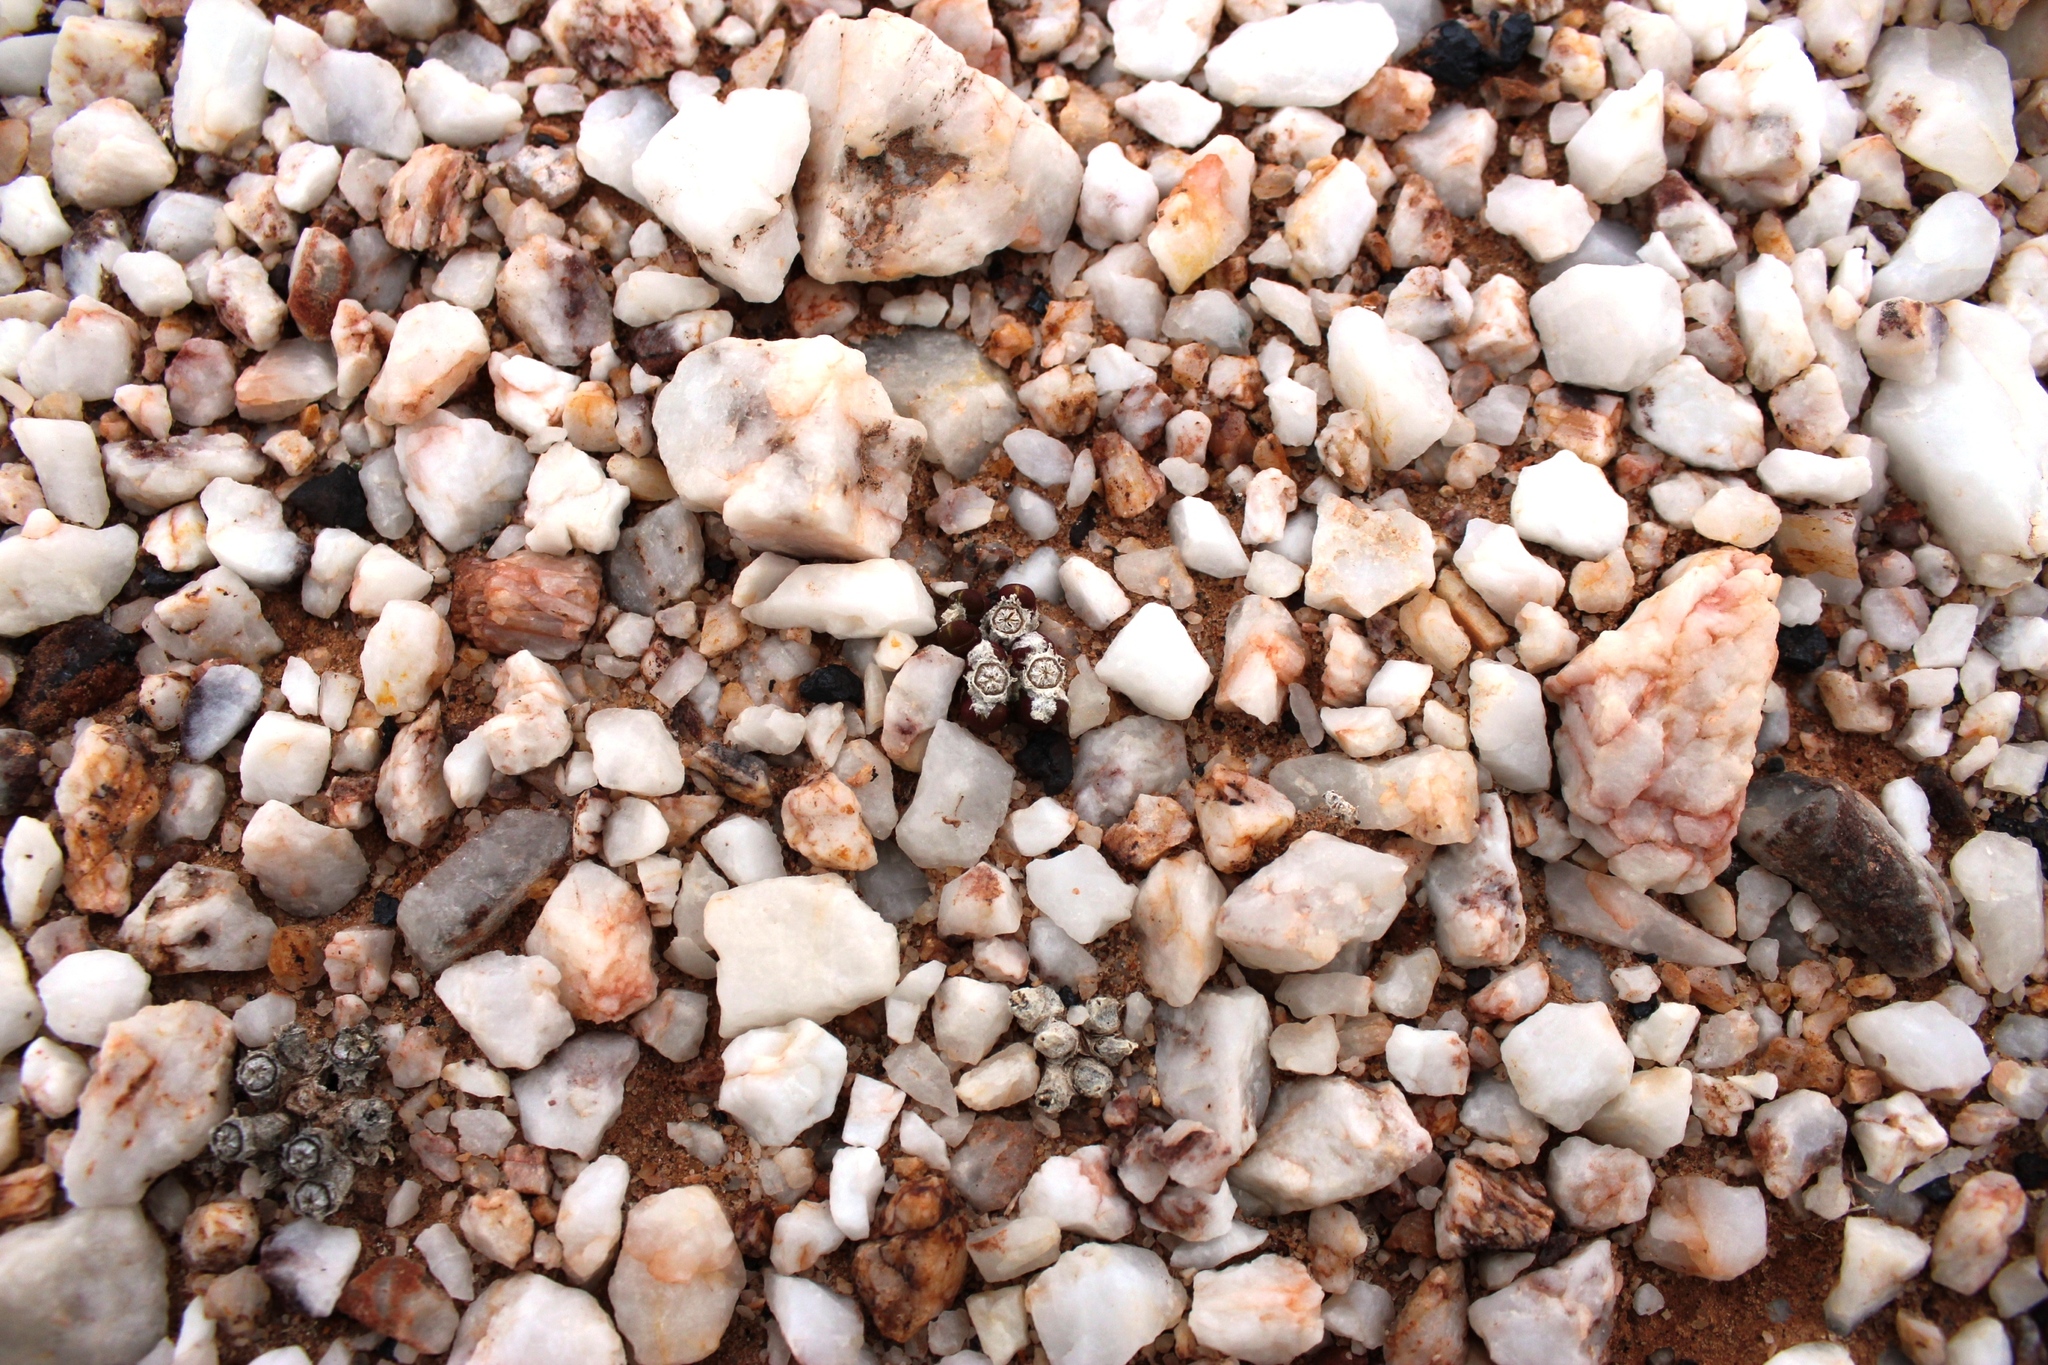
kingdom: Plantae
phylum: Tracheophyta
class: Magnoliopsida
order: Caryophyllales
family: Aizoaceae
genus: Oophytum
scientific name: Oophytum nanum
